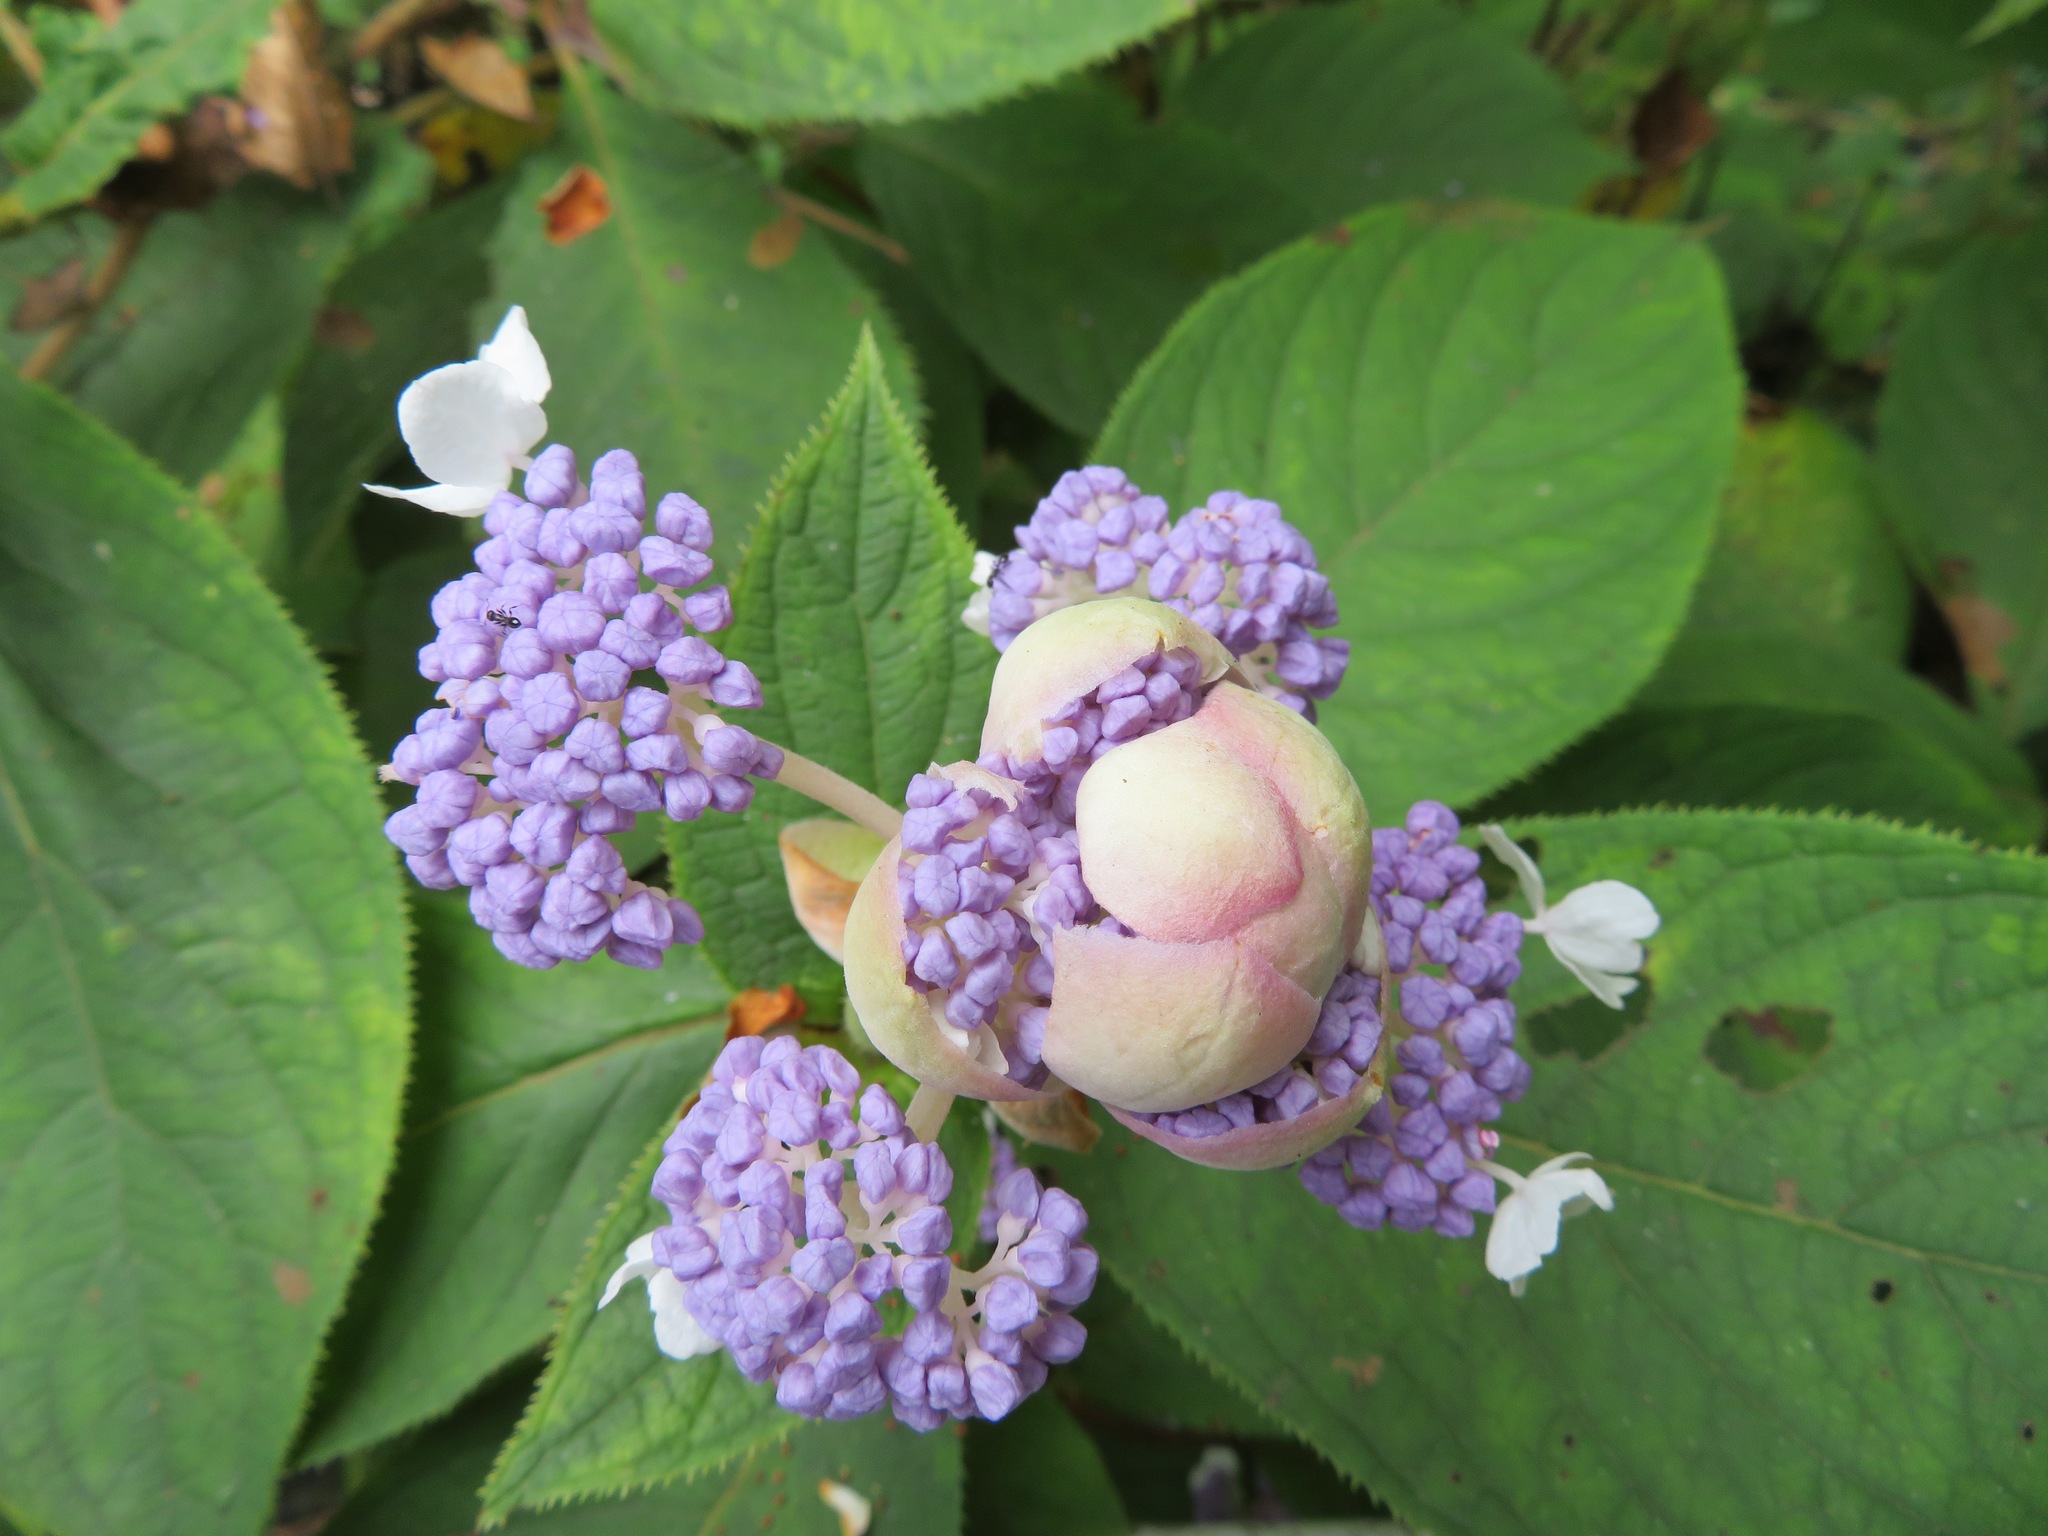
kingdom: Plantae
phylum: Tracheophyta
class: Magnoliopsida
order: Cornales
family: Hydrangeaceae
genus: Hydrangea
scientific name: Hydrangea involucrata
